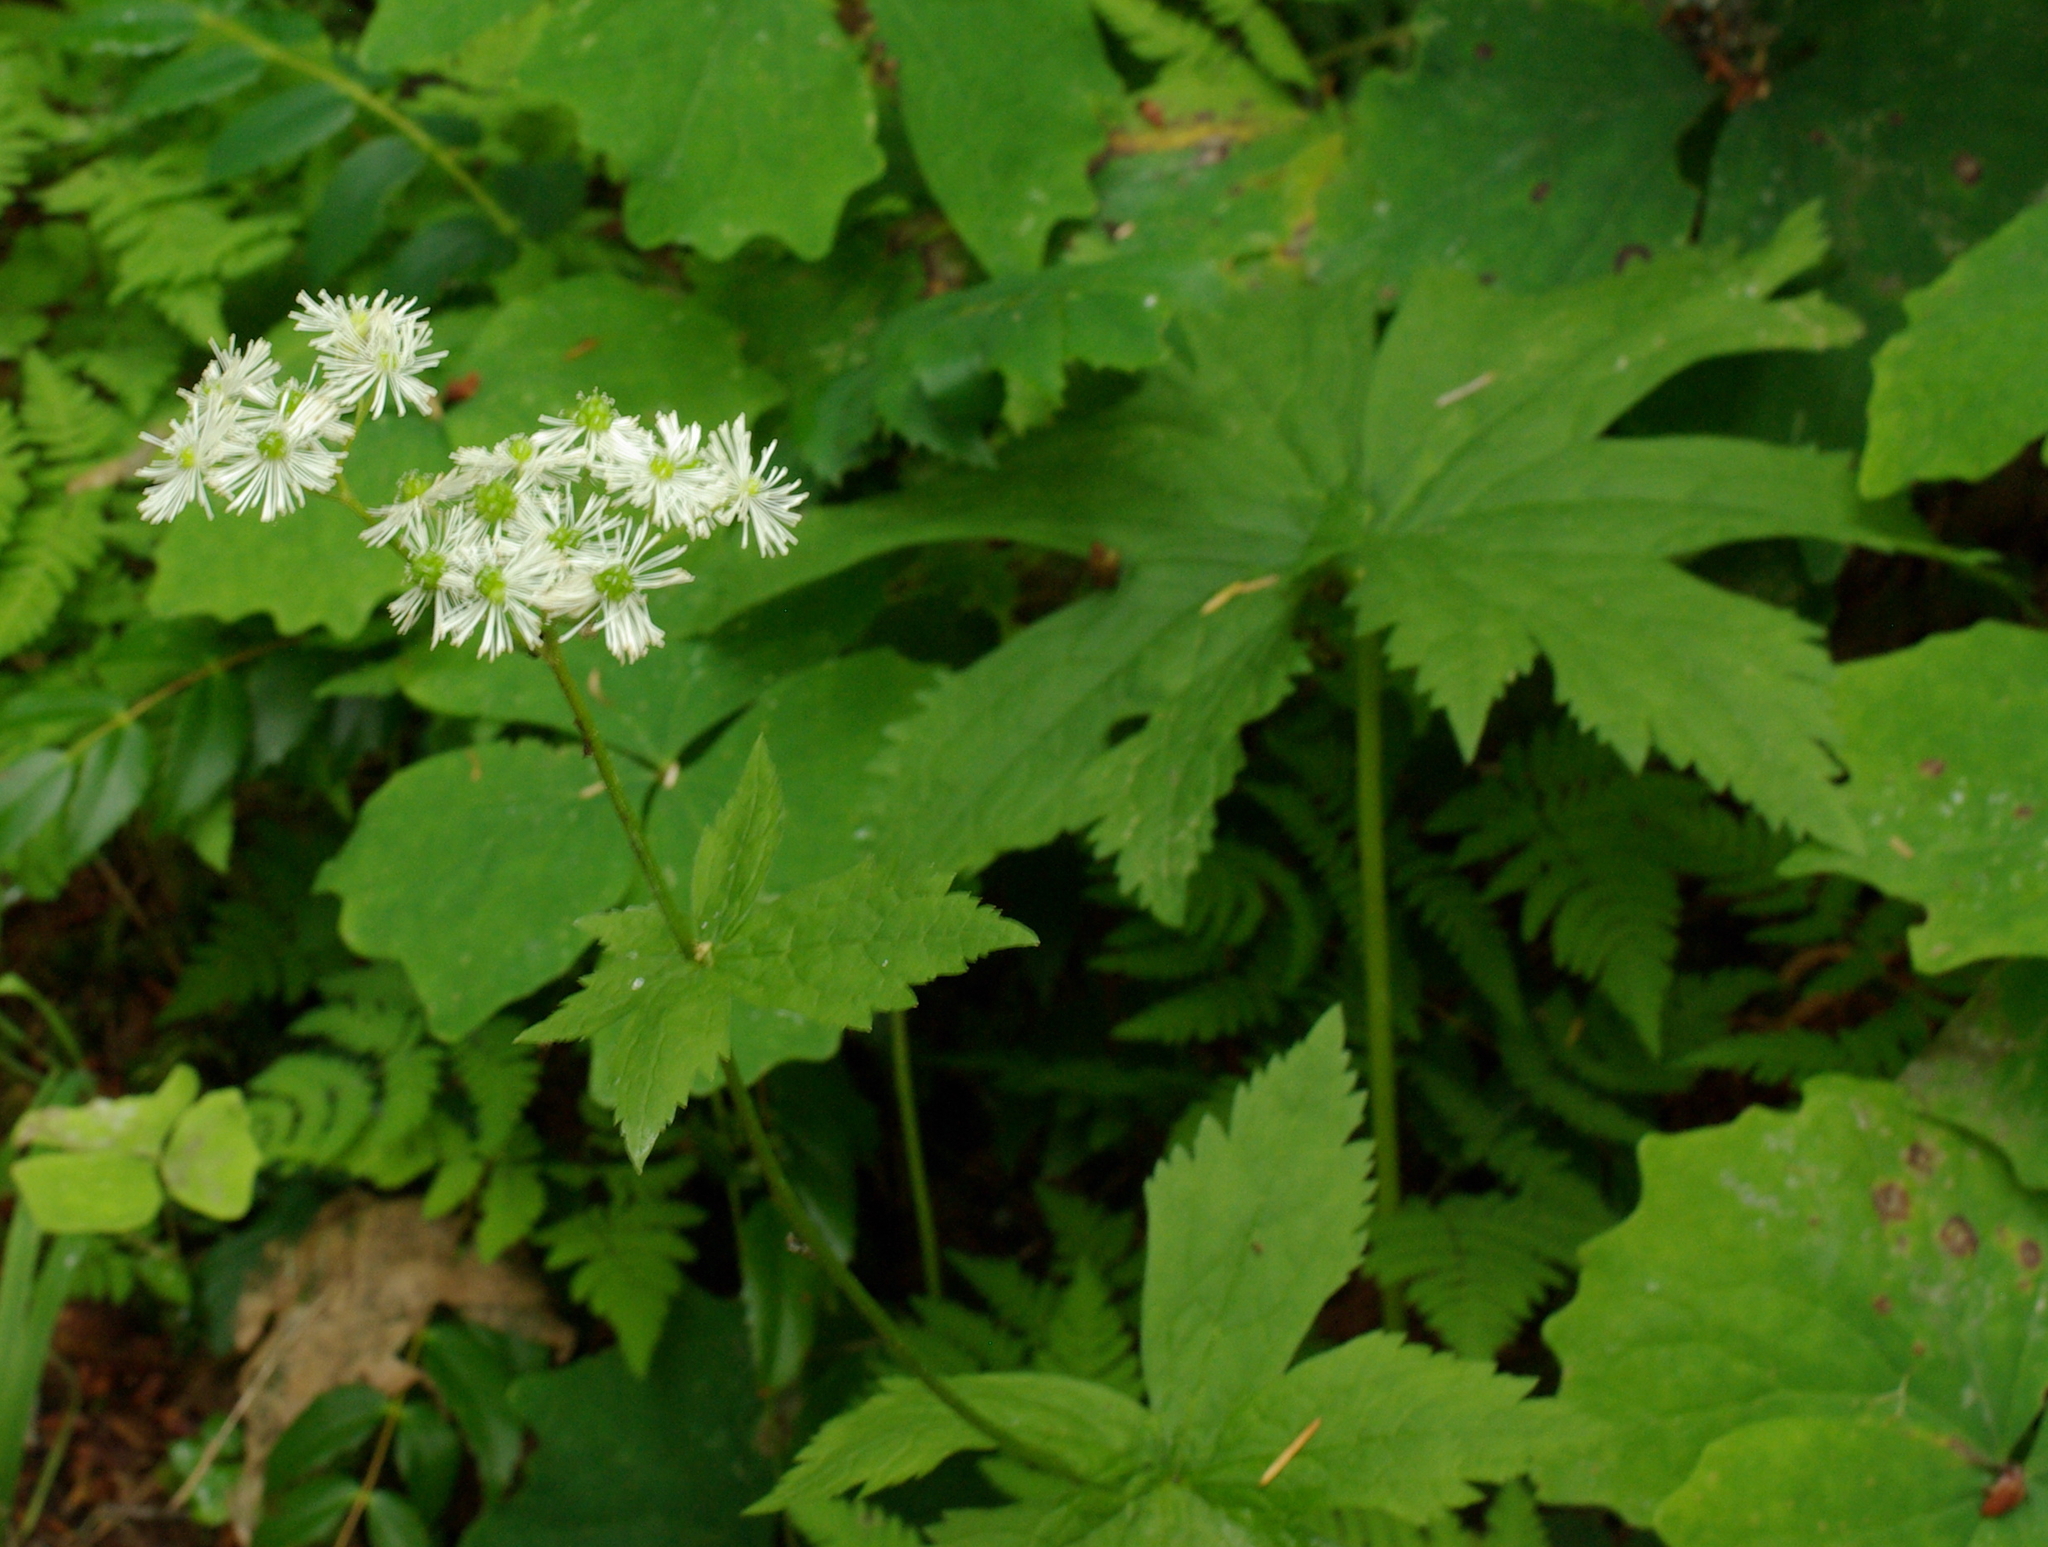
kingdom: Plantae
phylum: Tracheophyta
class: Magnoliopsida
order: Ranunculales
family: Ranunculaceae
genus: Trautvetteria
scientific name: Trautvetteria carolinensis
